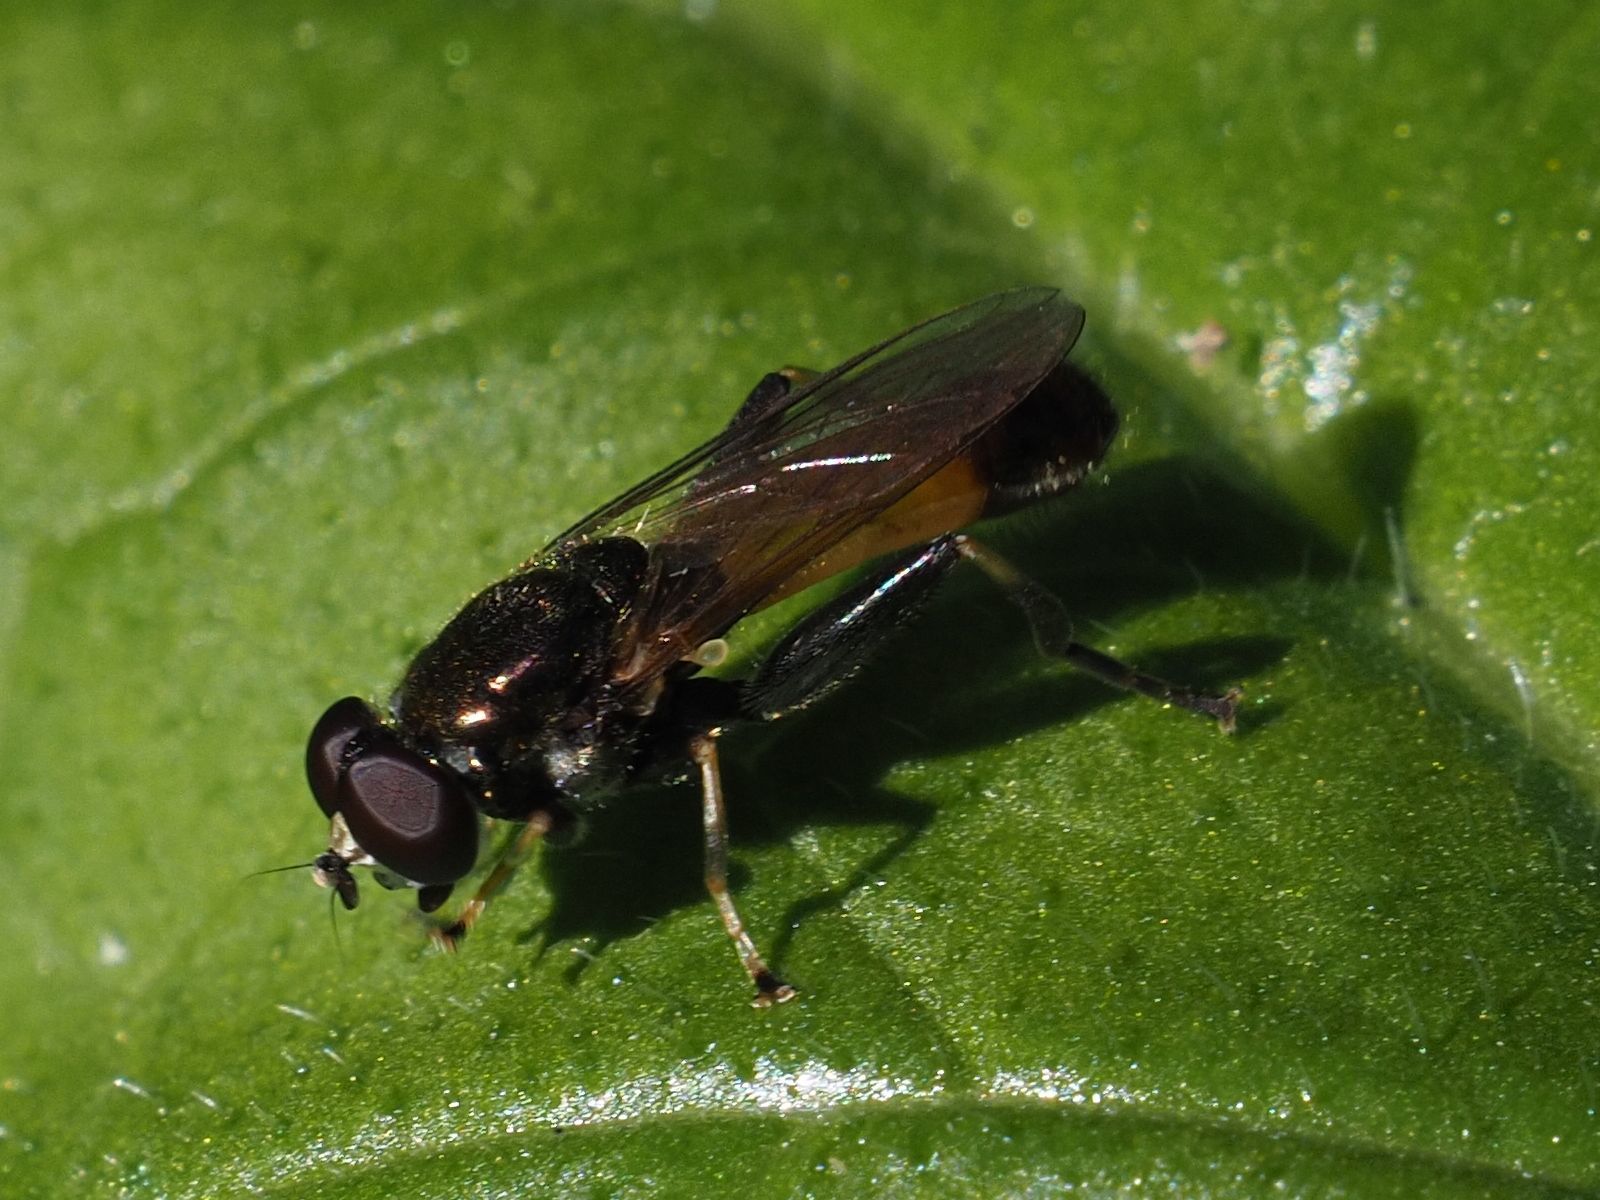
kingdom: Animalia
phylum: Arthropoda
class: Insecta
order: Diptera
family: Syrphidae
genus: Xylota
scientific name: Xylota segnis
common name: Brown-toed forest fly
